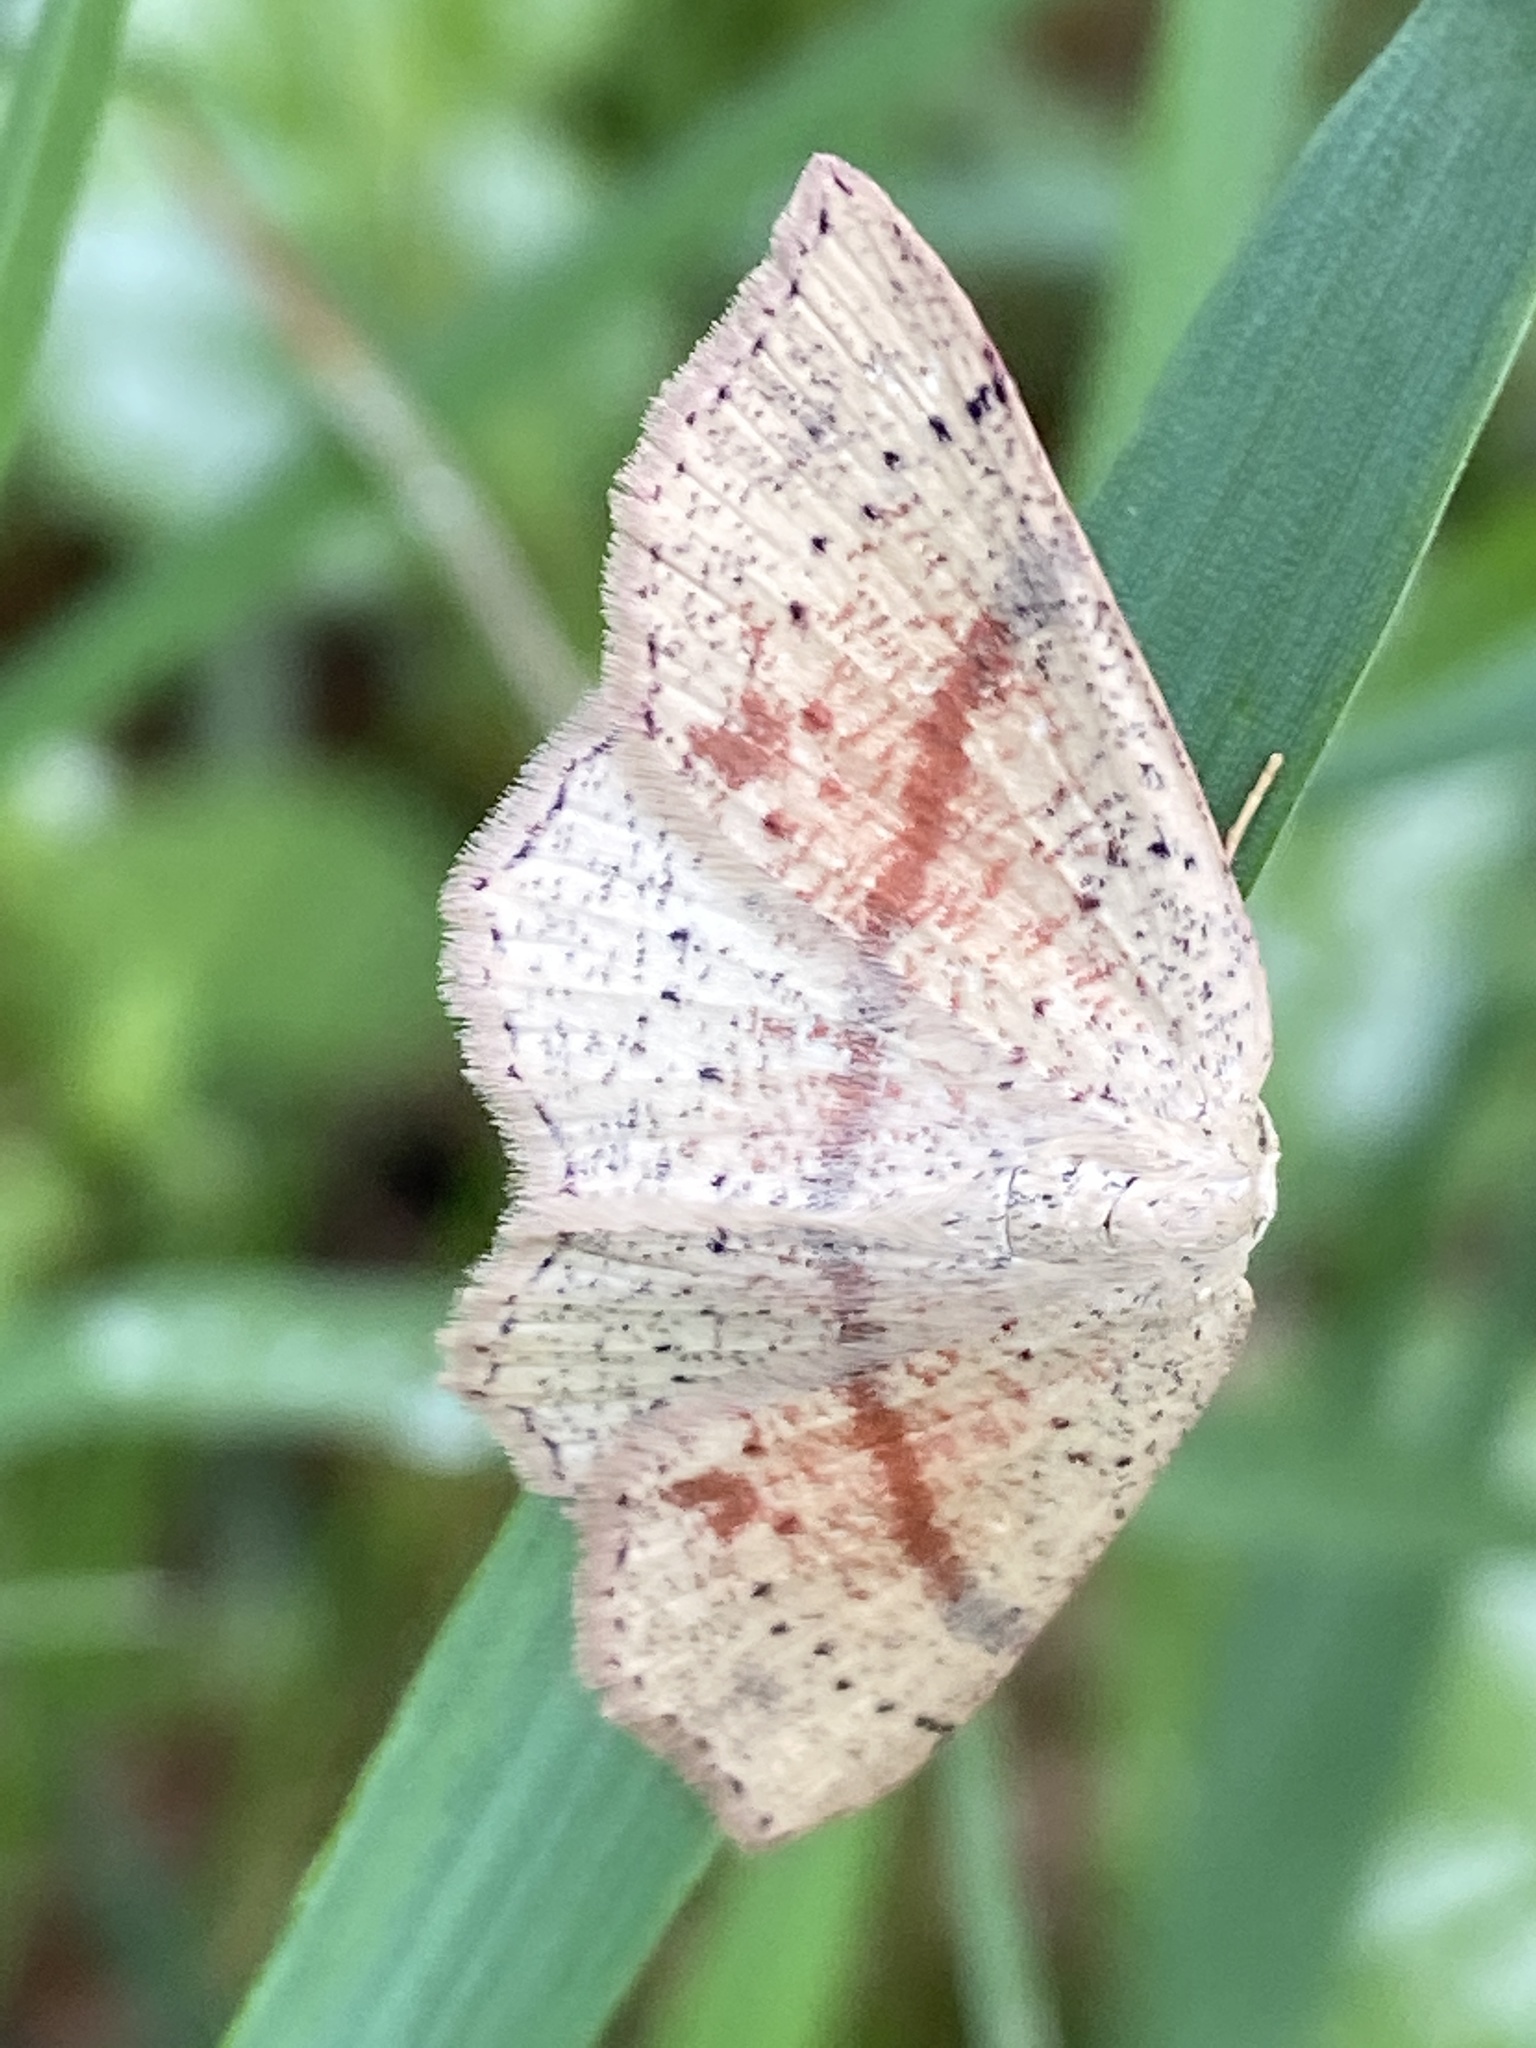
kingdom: Animalia
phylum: Arthropoda
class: Insecta
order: Lepidoptera
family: Geometridae
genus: Cyclophora
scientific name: Cyclophora punctaria
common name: Maiden's blush
